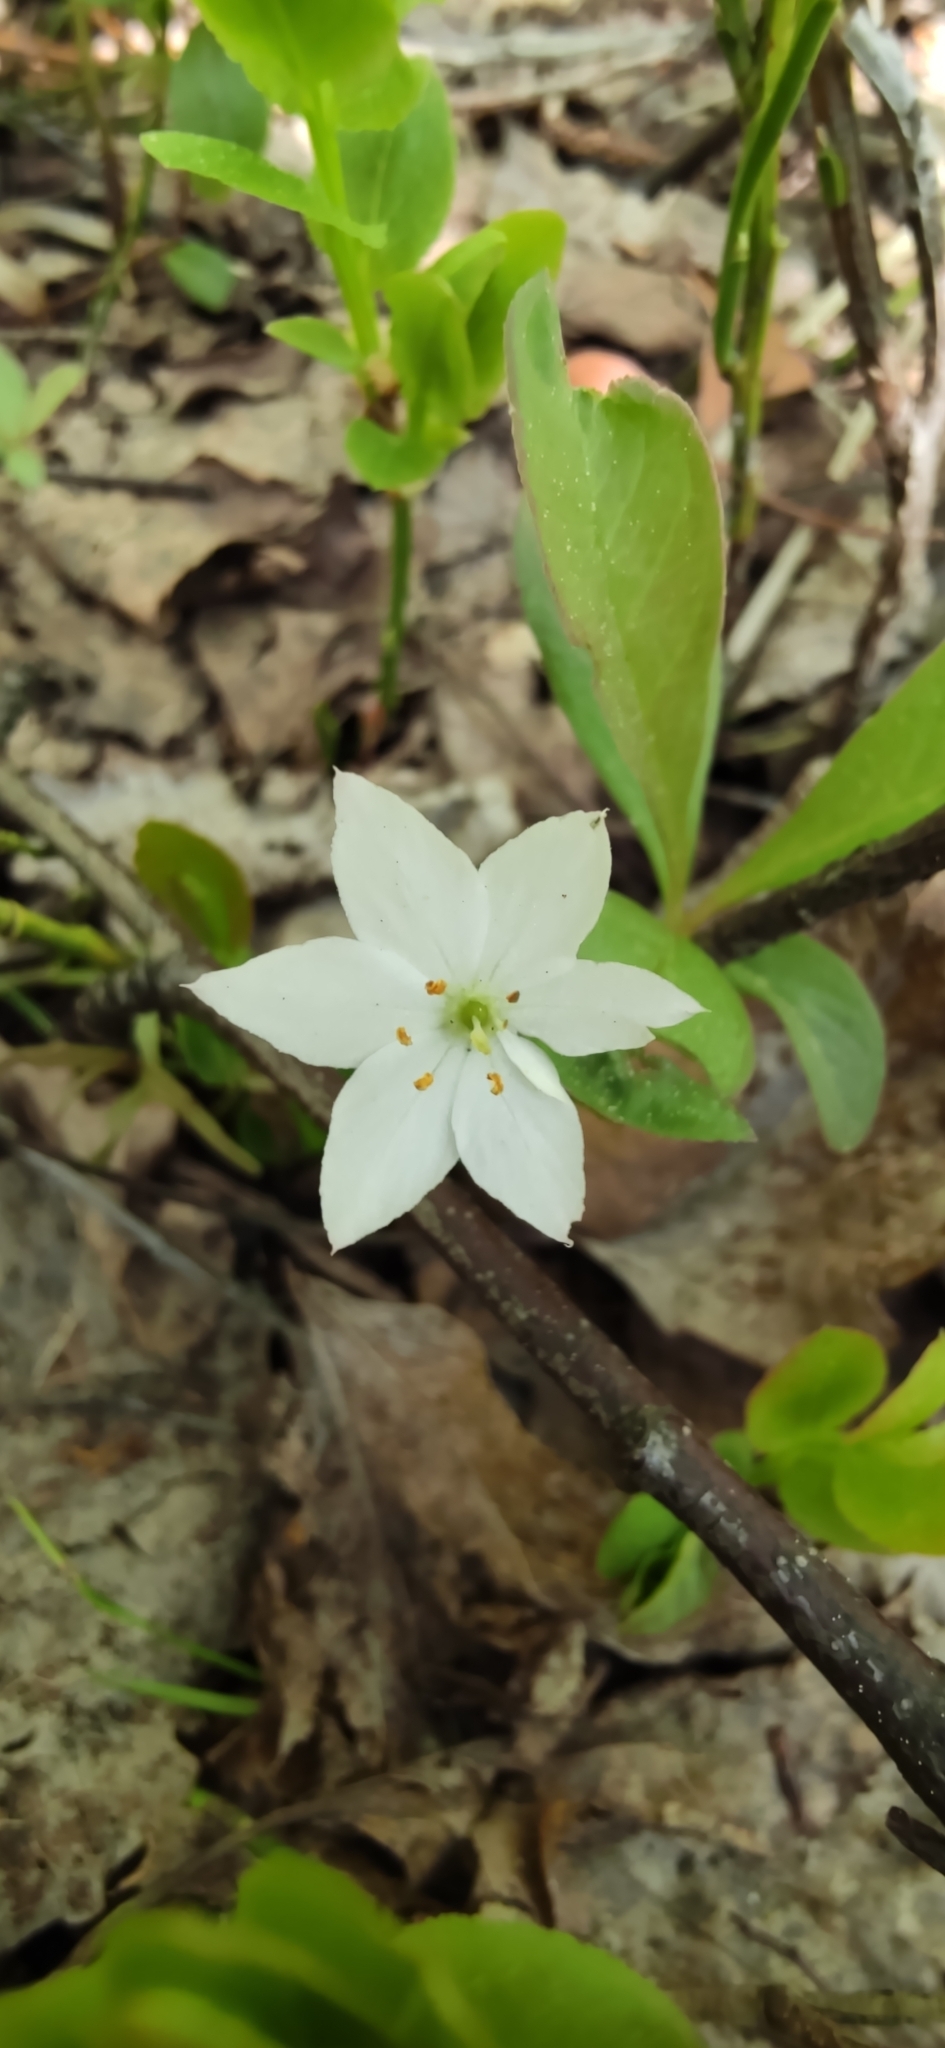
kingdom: Plantae
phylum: Tracheophyta
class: Magnoliopsida
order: Ericales
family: Primulaceae
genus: Lysimachia
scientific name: Lysimachia europaea
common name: Arctic starflower
